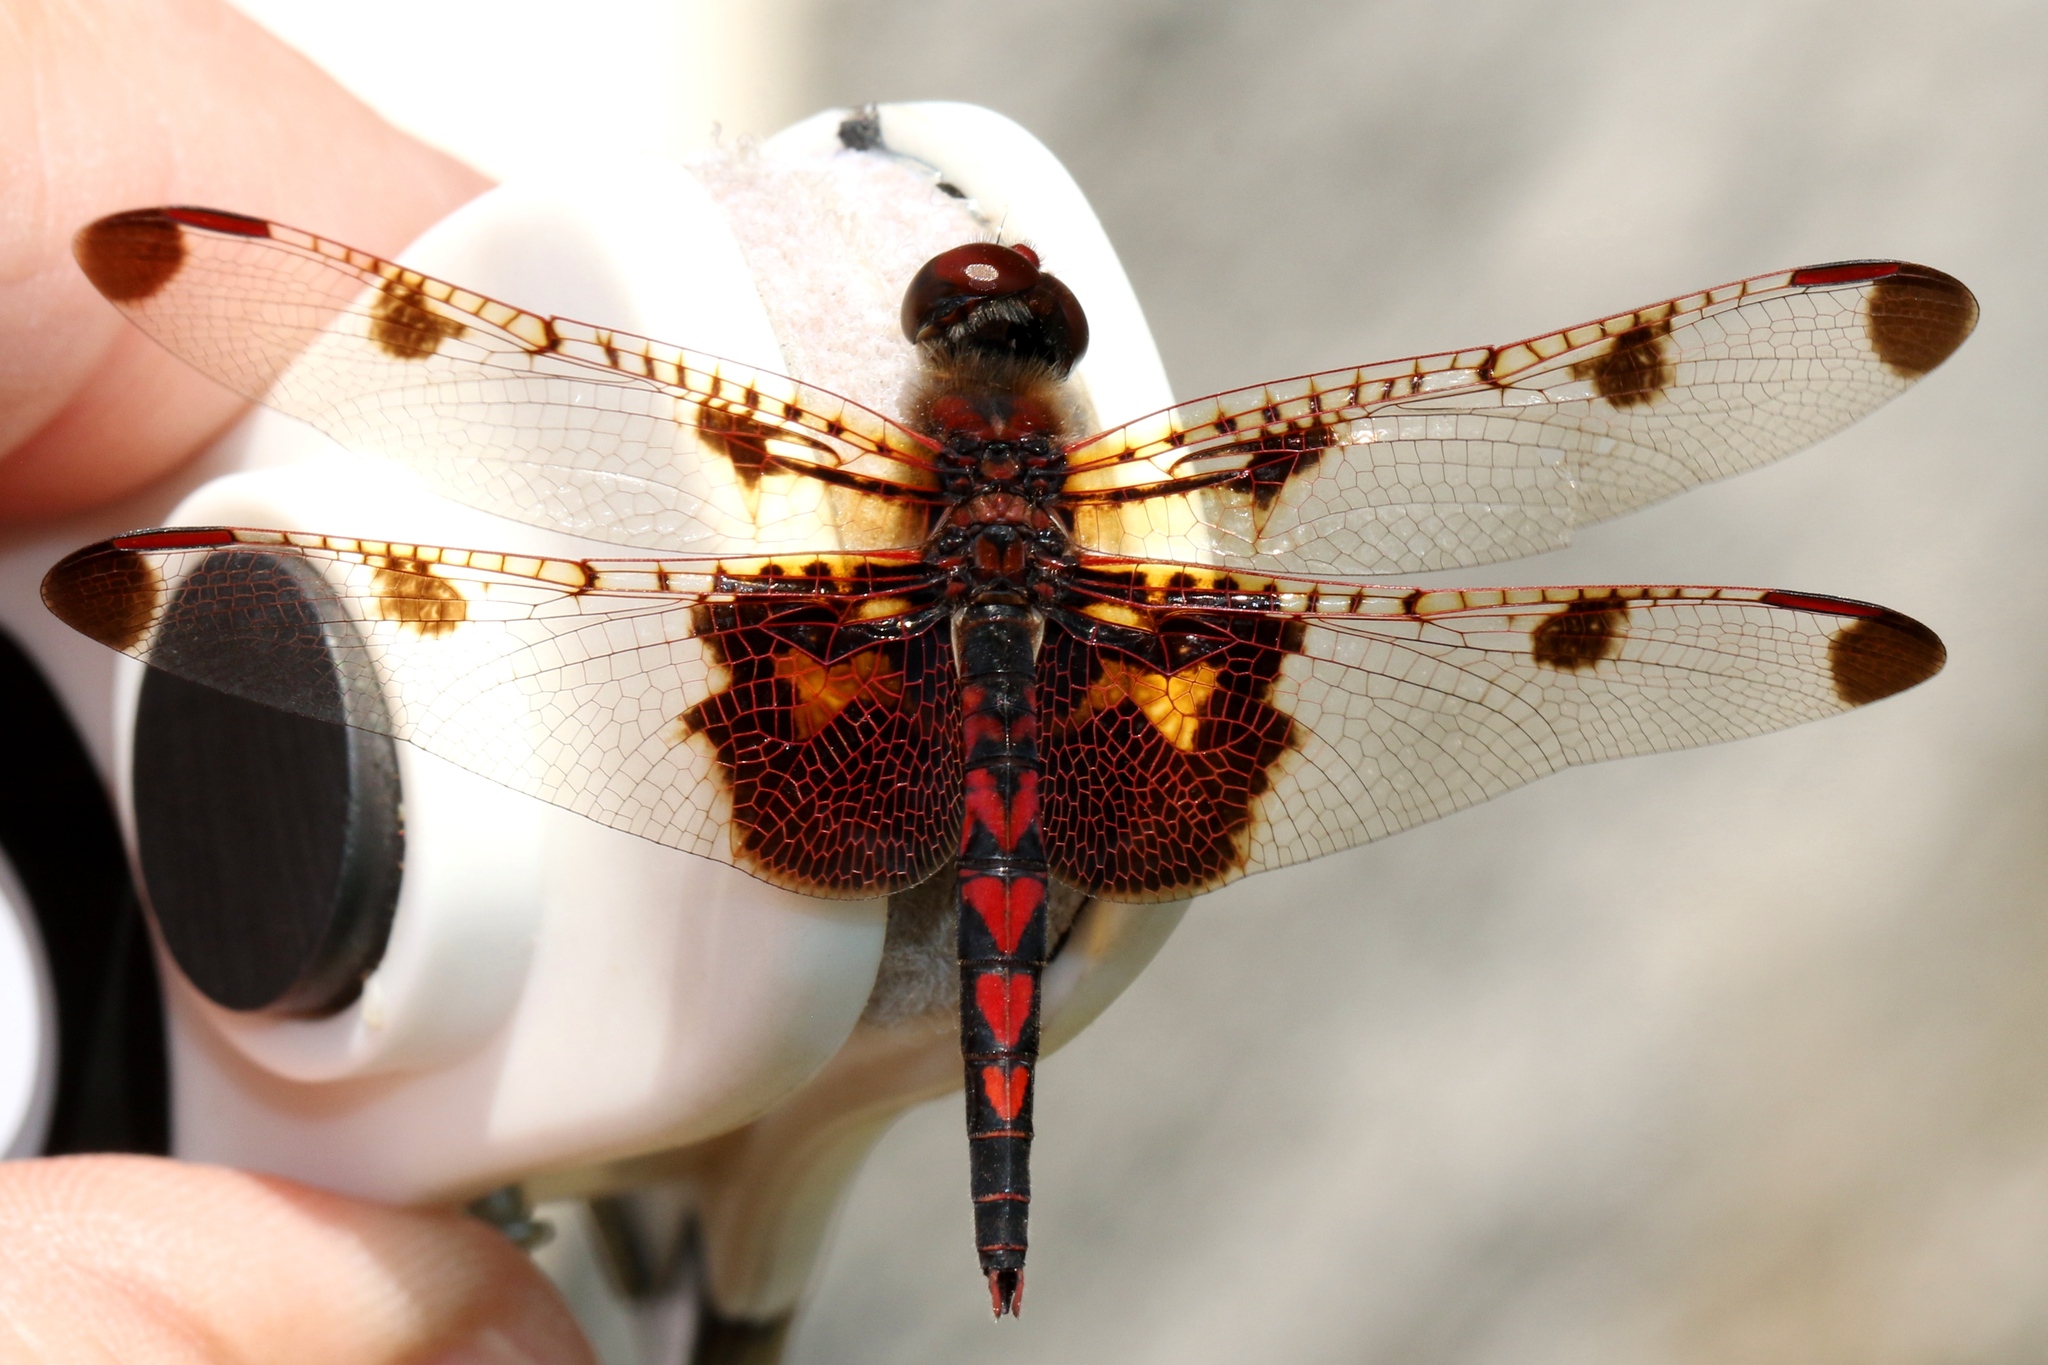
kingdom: Animalia
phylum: Arthropoda
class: Insecta
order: Odonata
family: Libellulidae
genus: Celithemis
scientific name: Celithemis elisa
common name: Calico pennant
